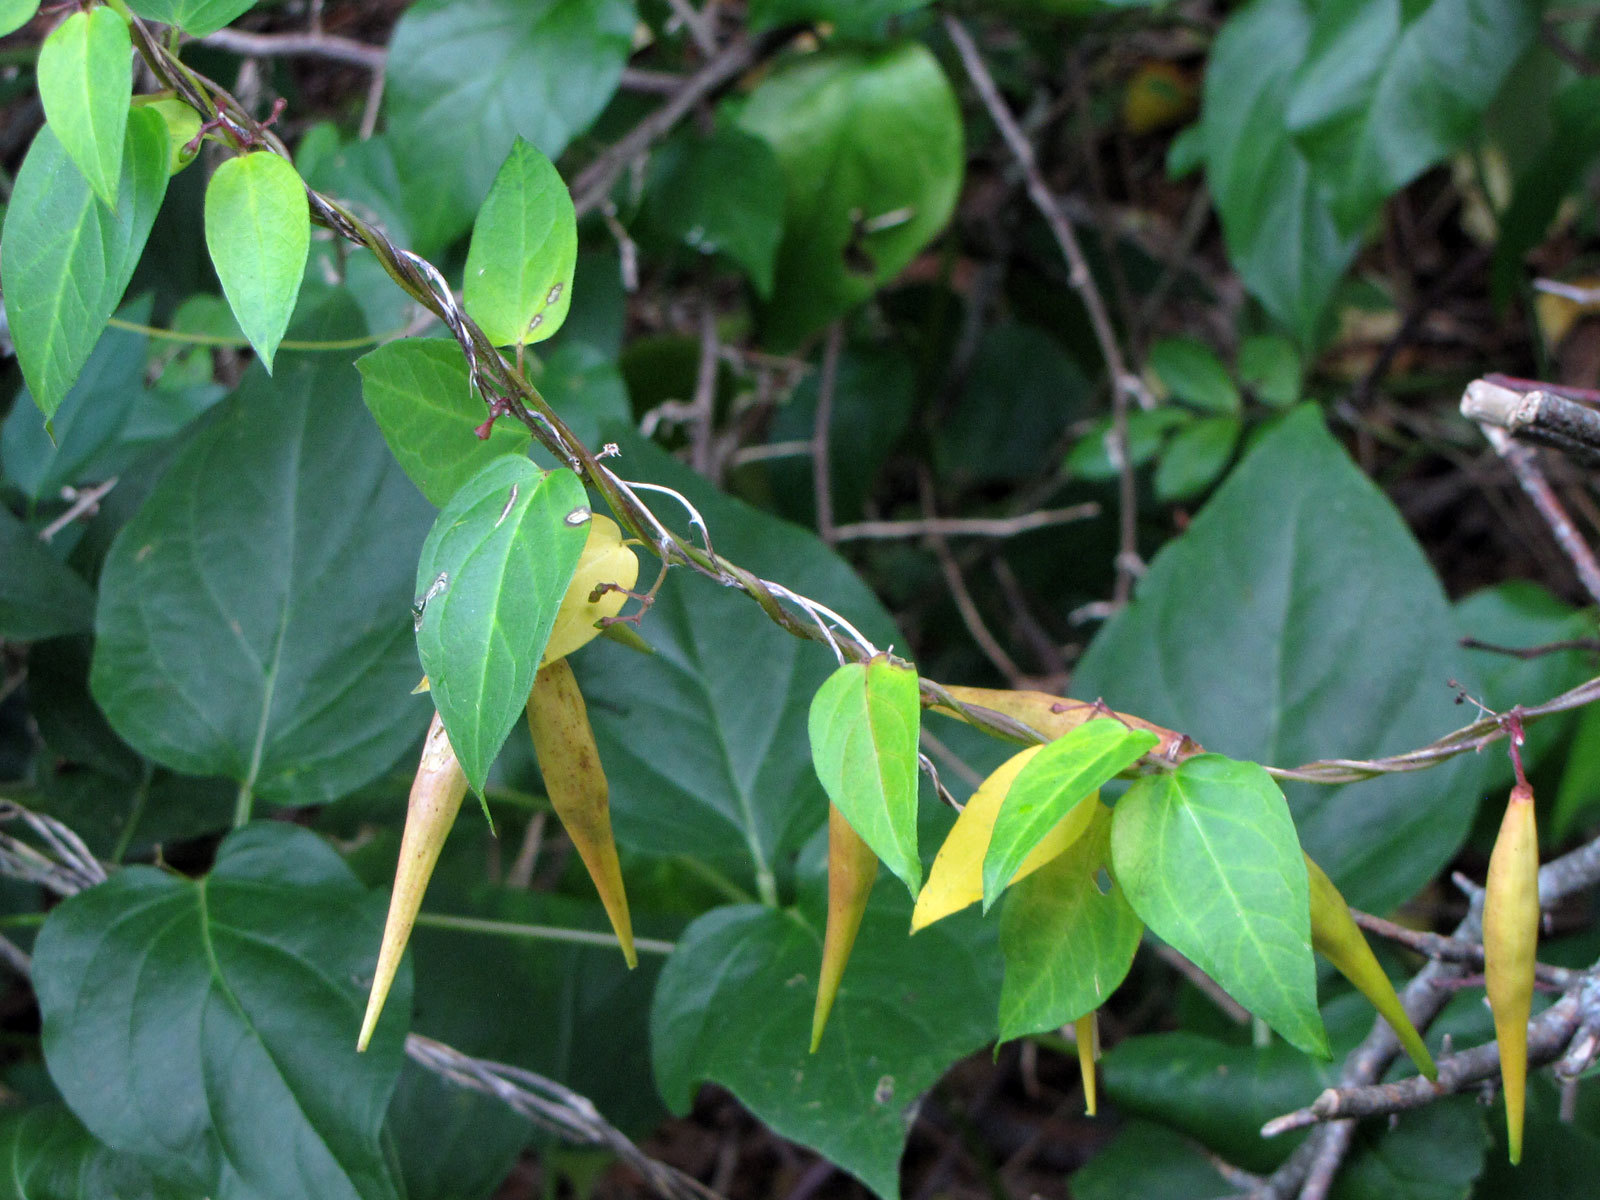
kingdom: Plantae
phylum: Tracheophyta
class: Magnoliopsida
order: Gentianales
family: Apocynaceae
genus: Vincetoxicum
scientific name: Vincetoxicum nigrum
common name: Black swallow-wort
